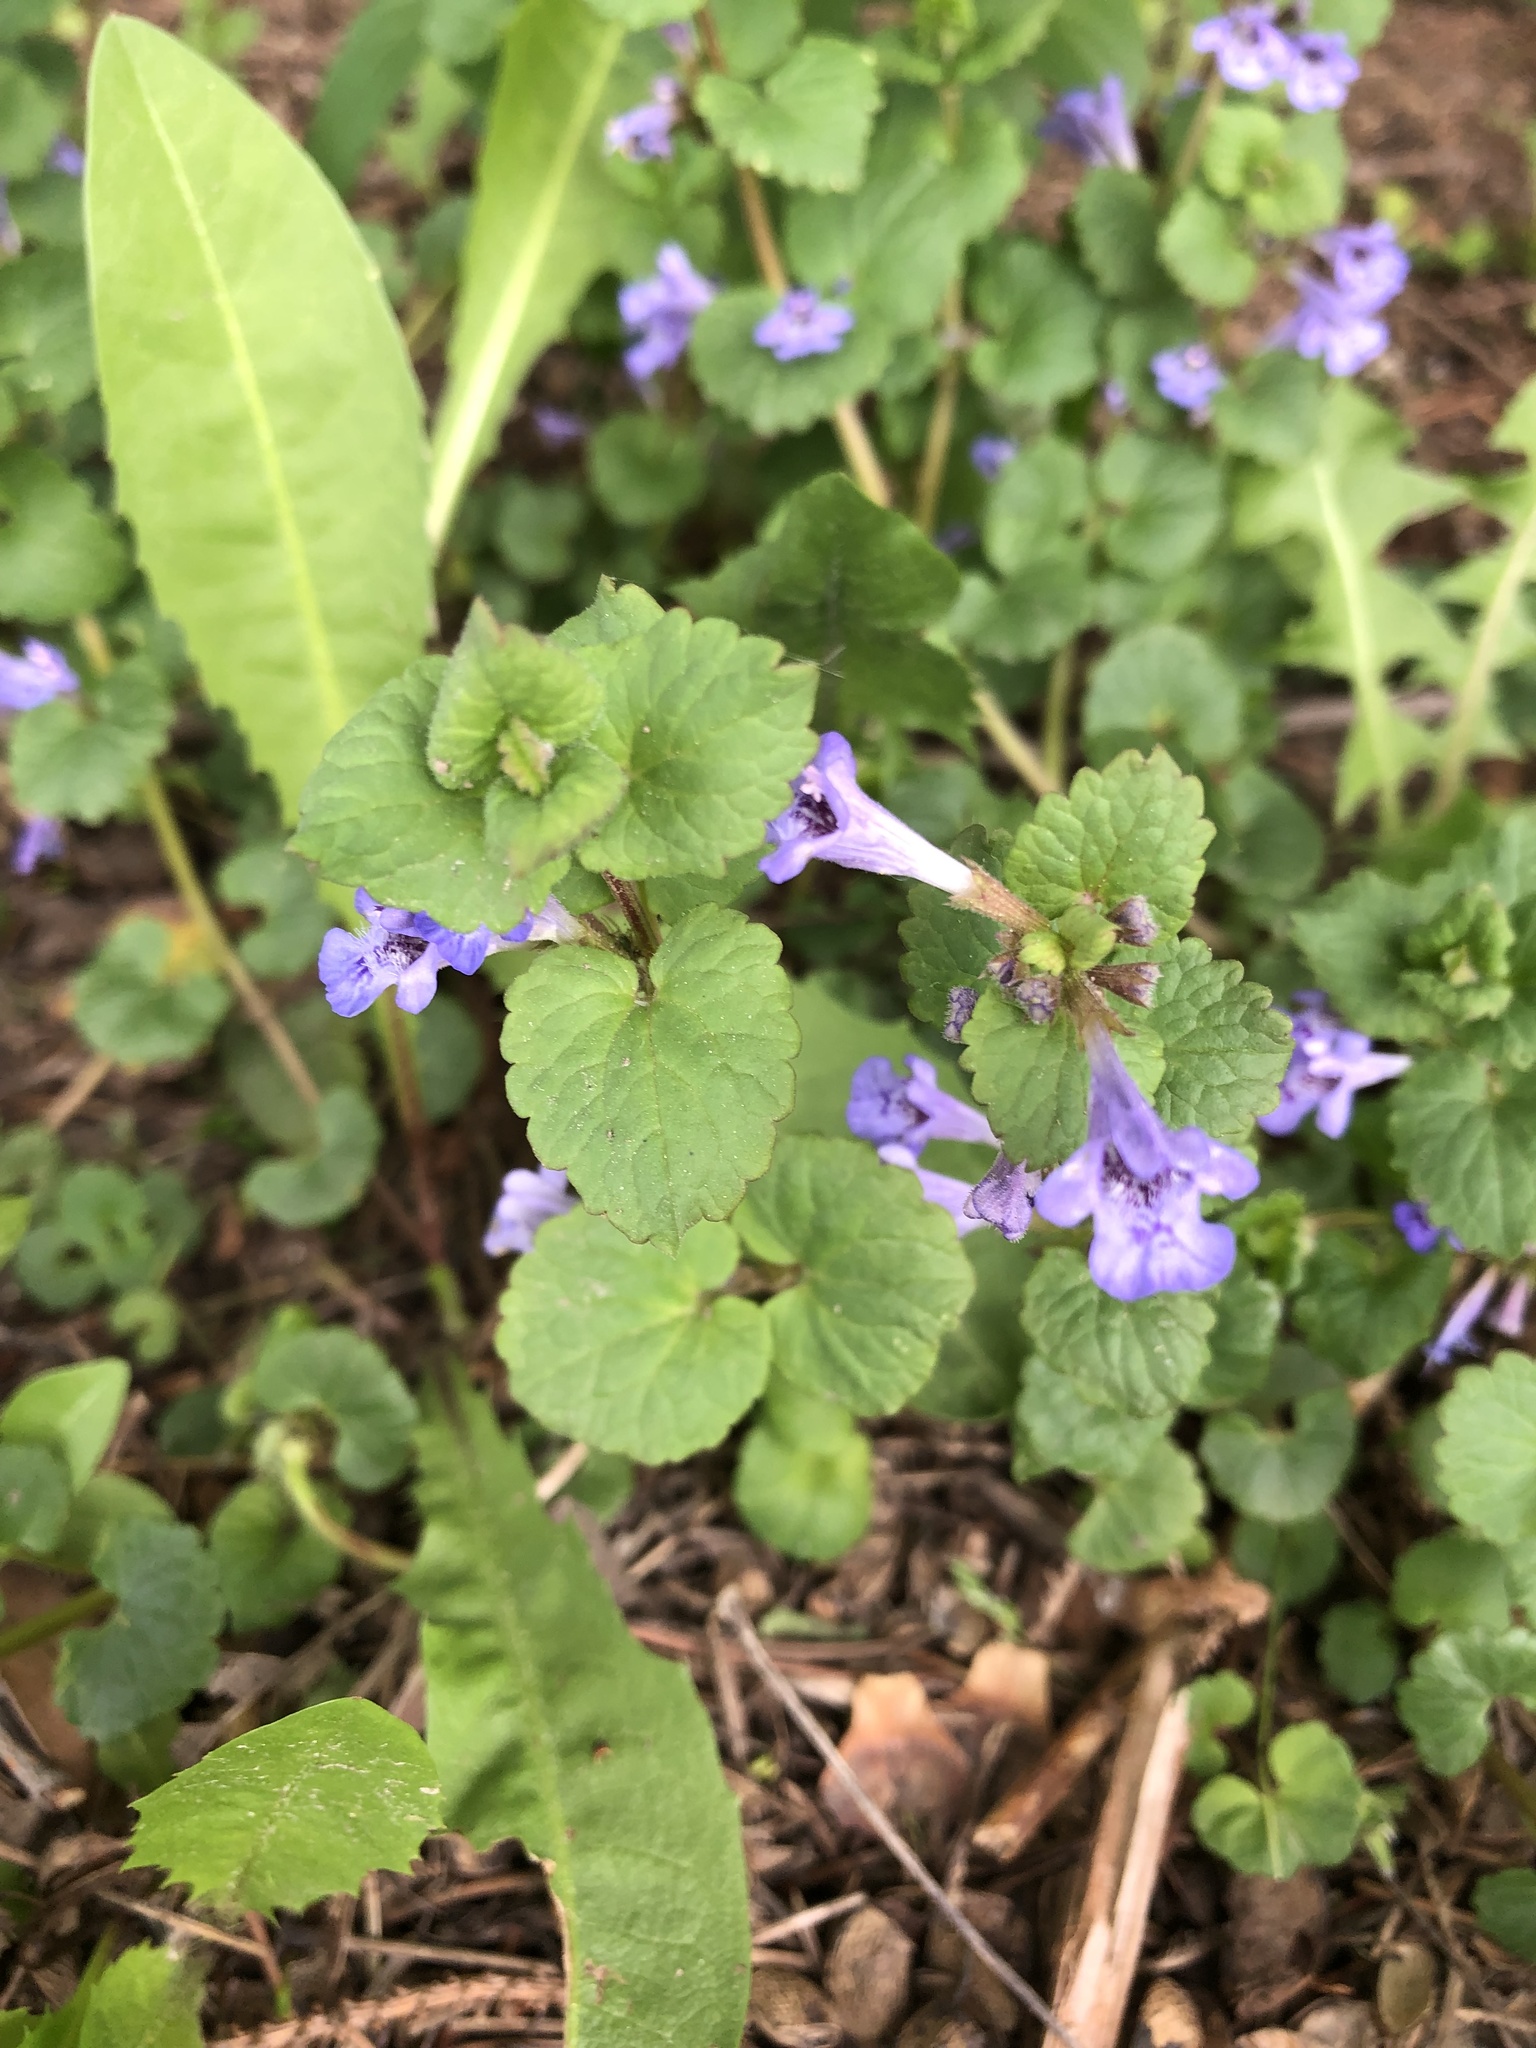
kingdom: Plantae
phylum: Tracheophyta
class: Magnoliopsida
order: Lamiales
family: Lamiaceae
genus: Glechoma
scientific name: Glechoma hederacea
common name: Ground ivy
